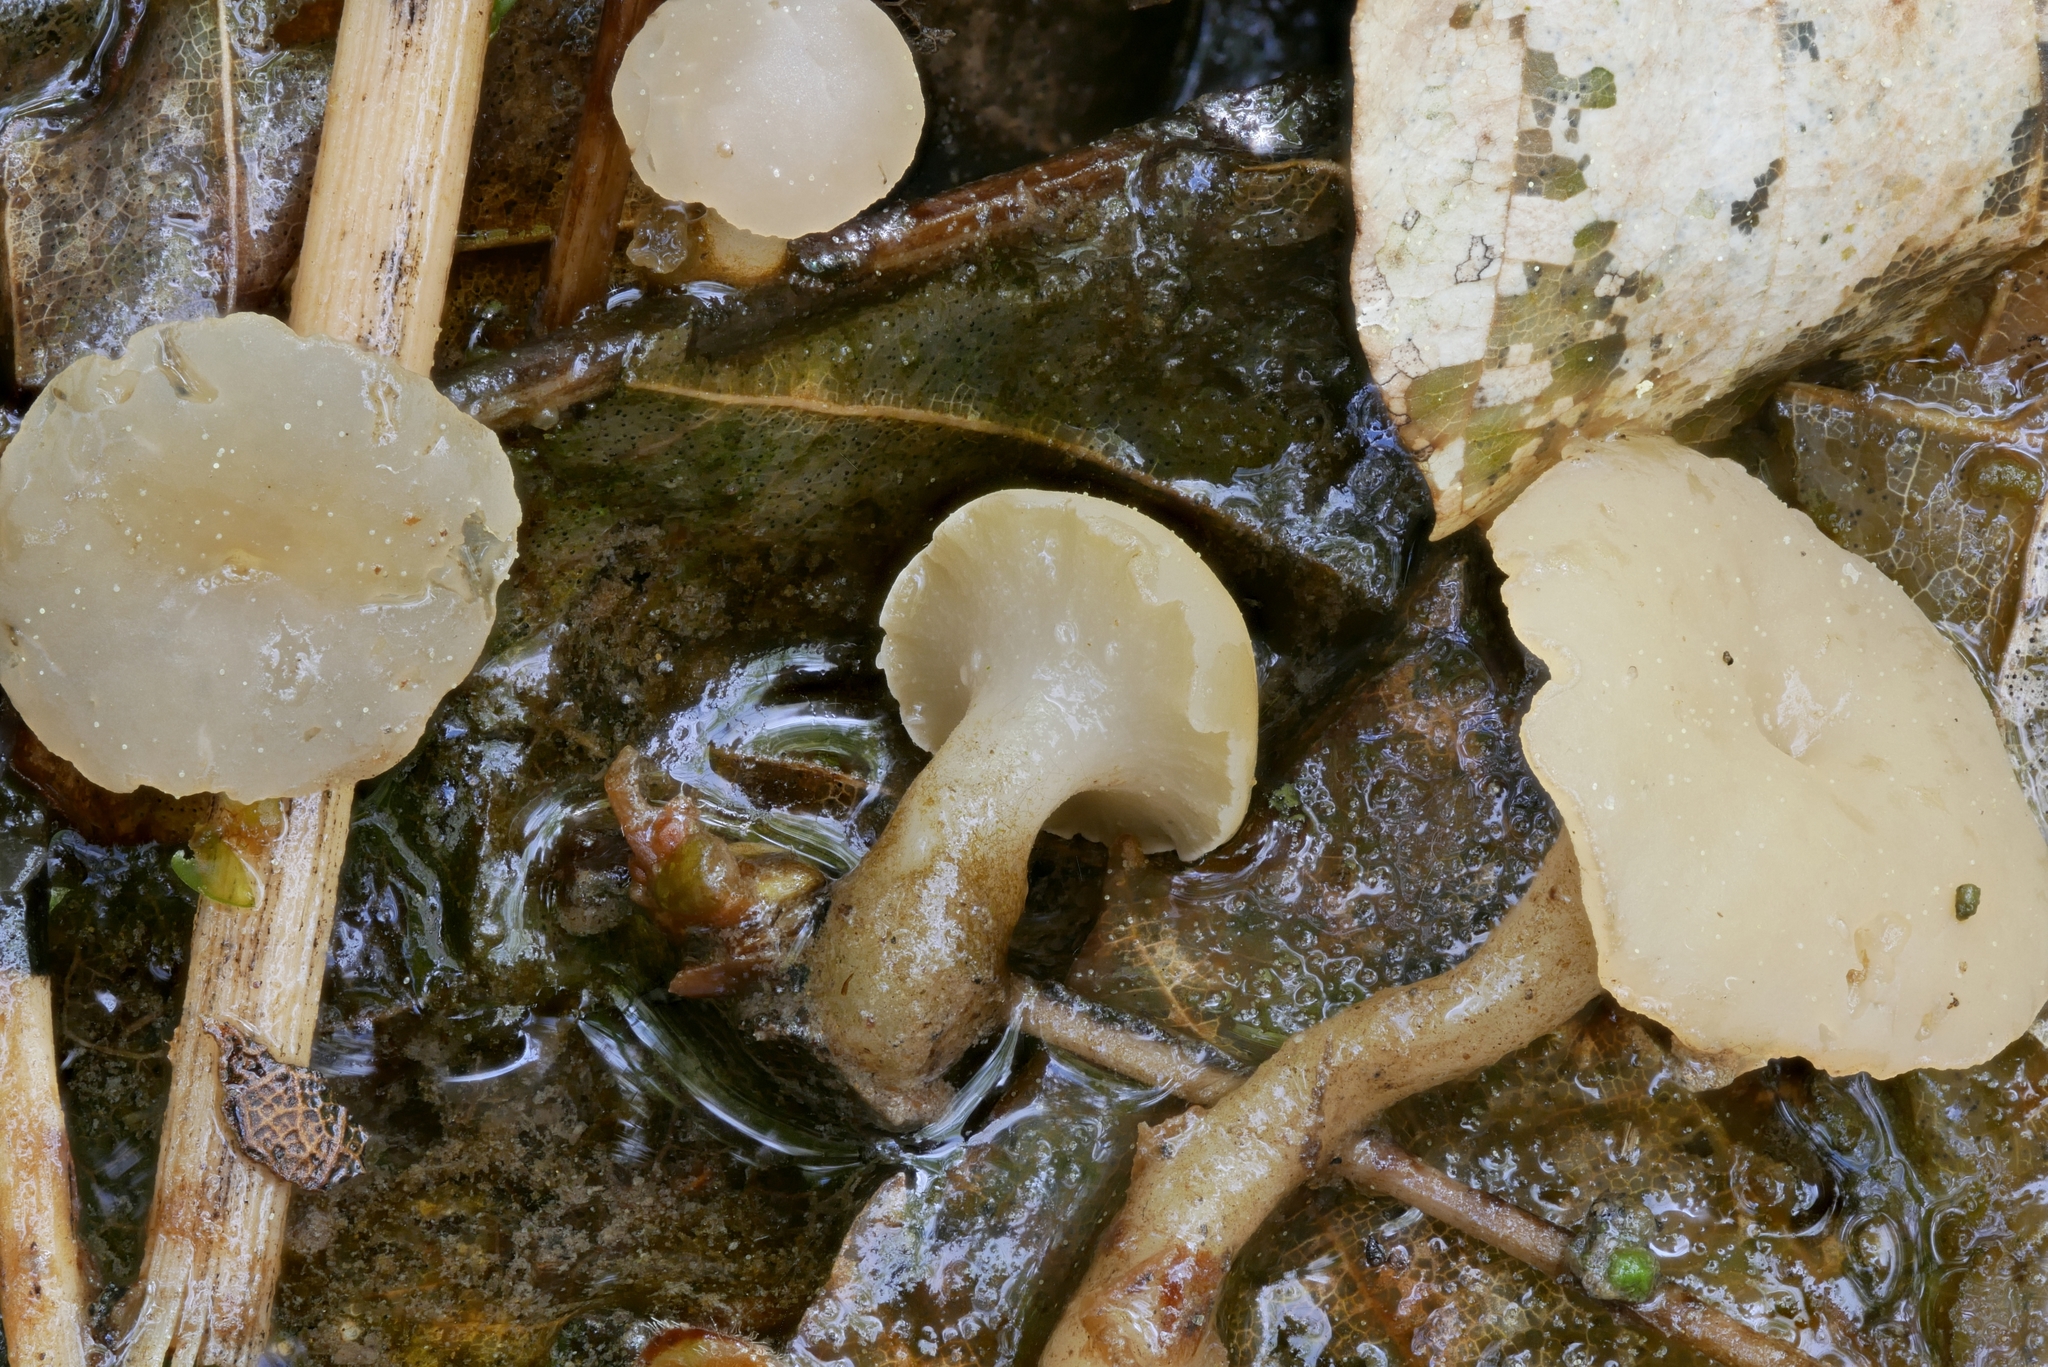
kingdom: Fungi
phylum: Ascomycota
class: Leotiomycetes
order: Helotiales
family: Tricladiaceae
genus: Cudoniella
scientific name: Cudoniella clavus
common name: Spring pin
